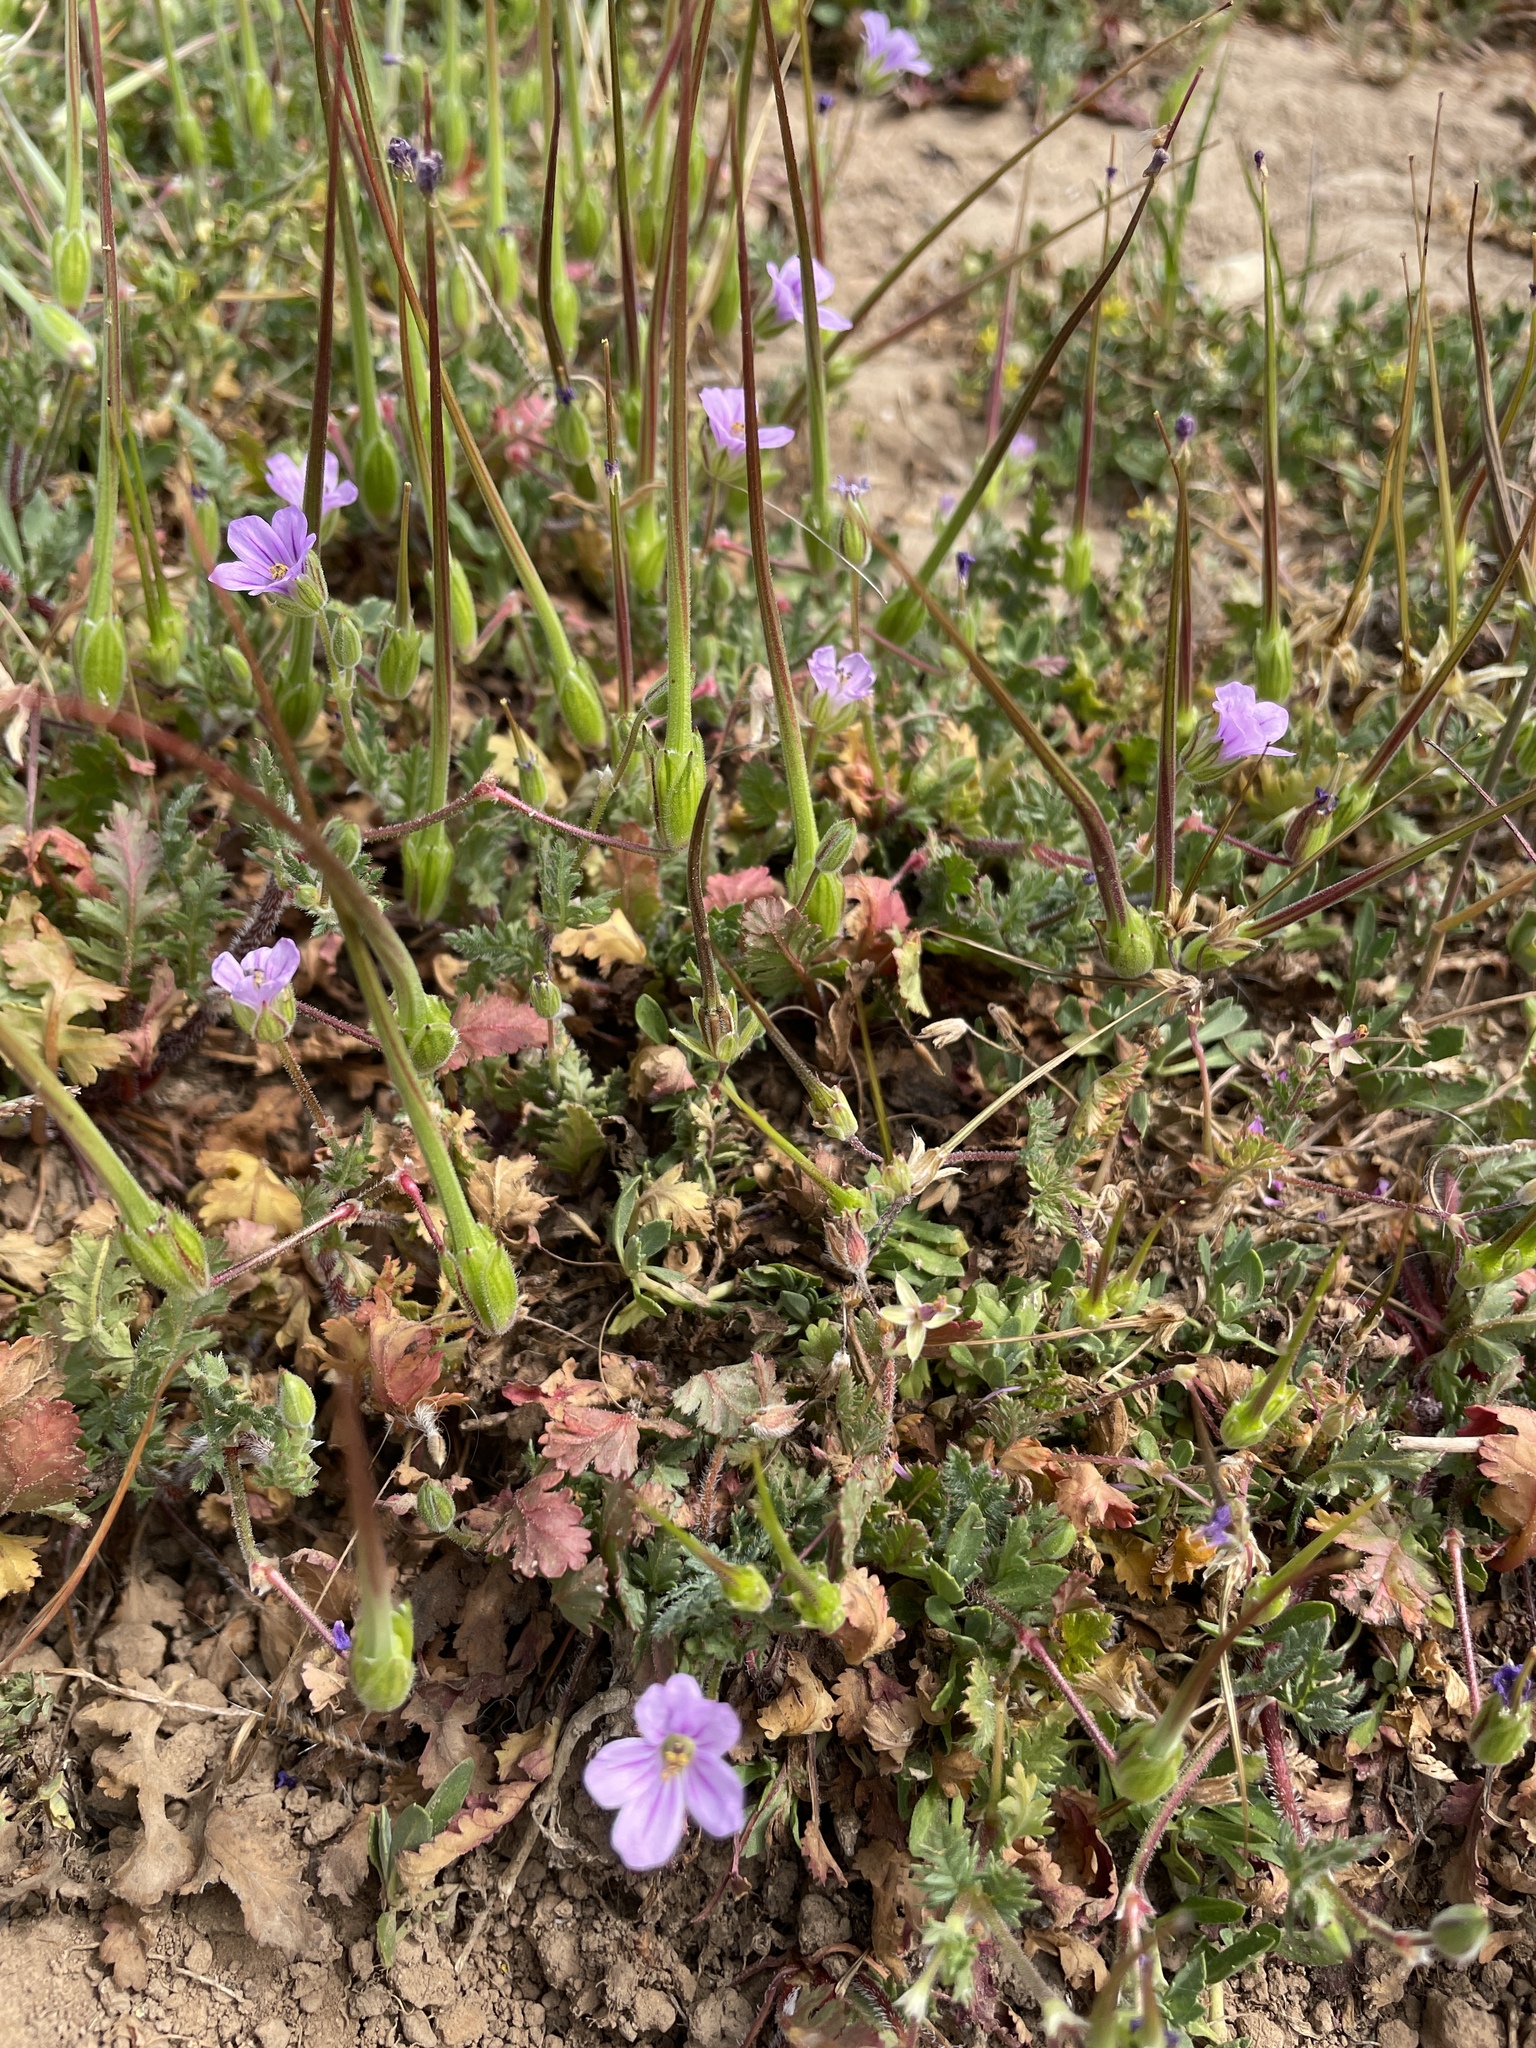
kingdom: Plantae
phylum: Tracheophyta
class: Magnoliopsida
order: Geraniales
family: Geraniaceae
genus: Erodium
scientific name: Erodium botrys
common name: Mediterranean stork's-bill
